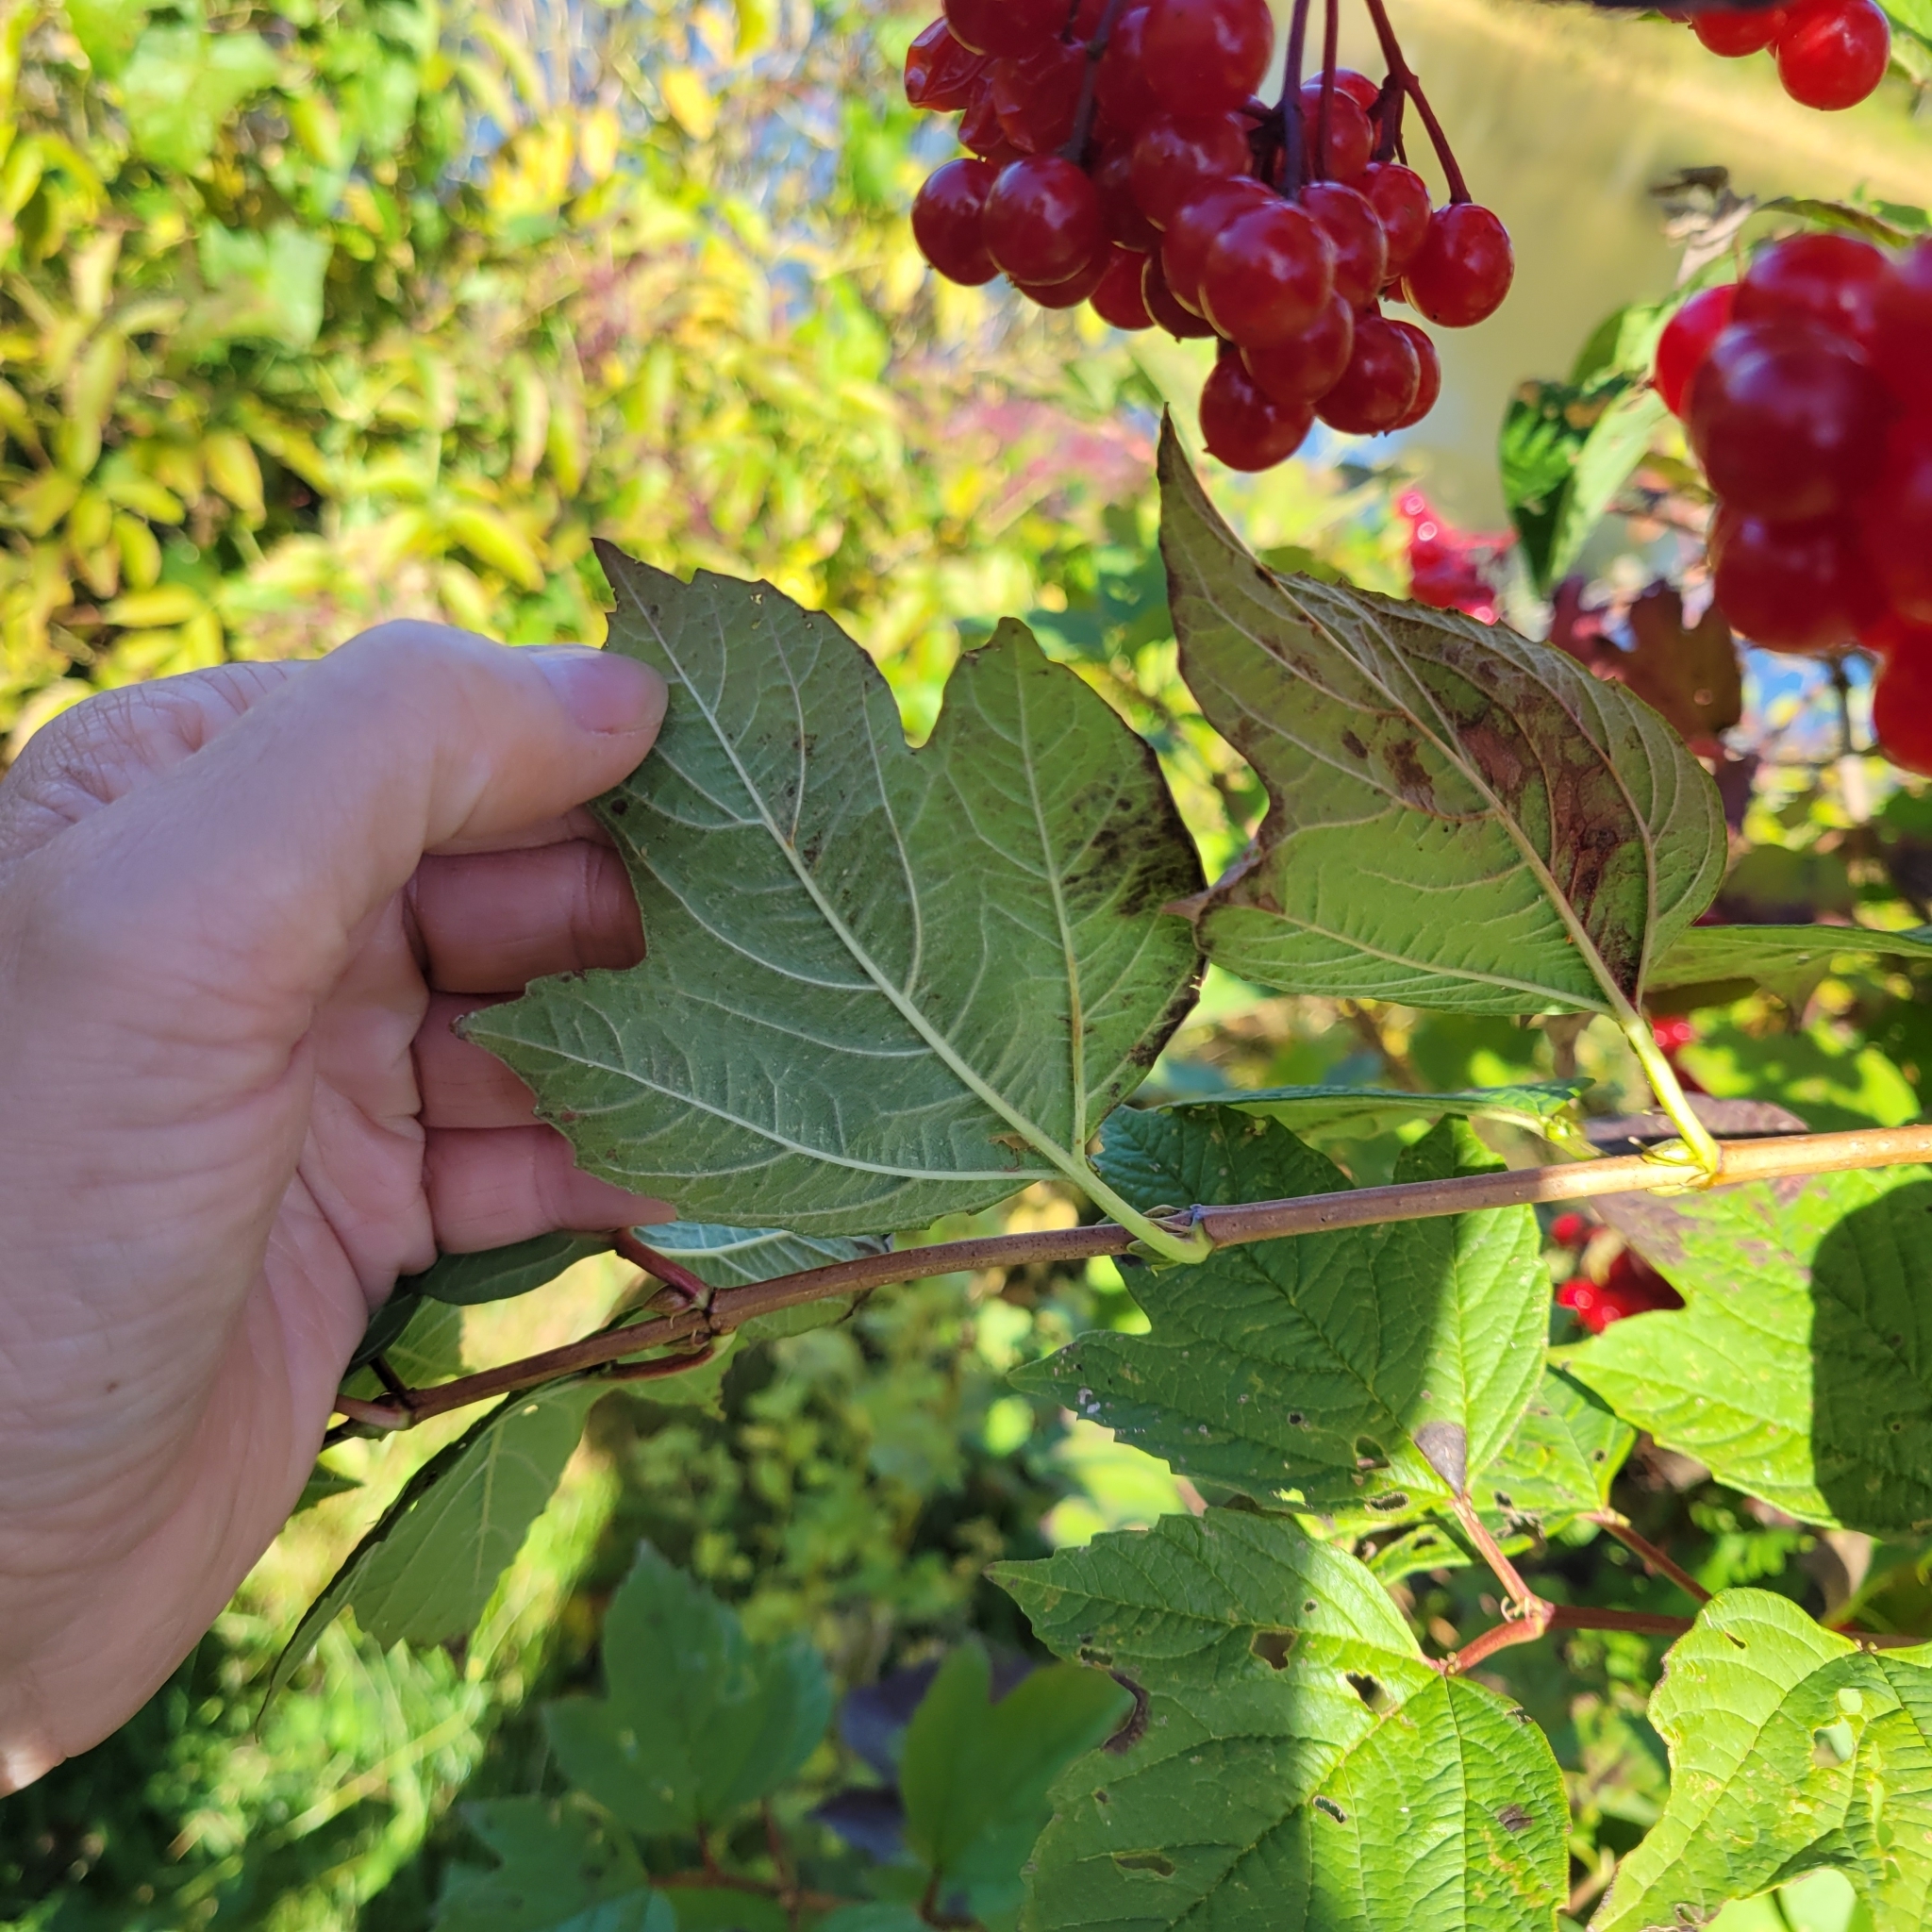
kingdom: Plantae
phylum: Tracheophyta
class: Magnoliopsida
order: Dipsacales
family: Viburnaceae
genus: Viburnum
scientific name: Viburnum opulus
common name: Guelder-rose
